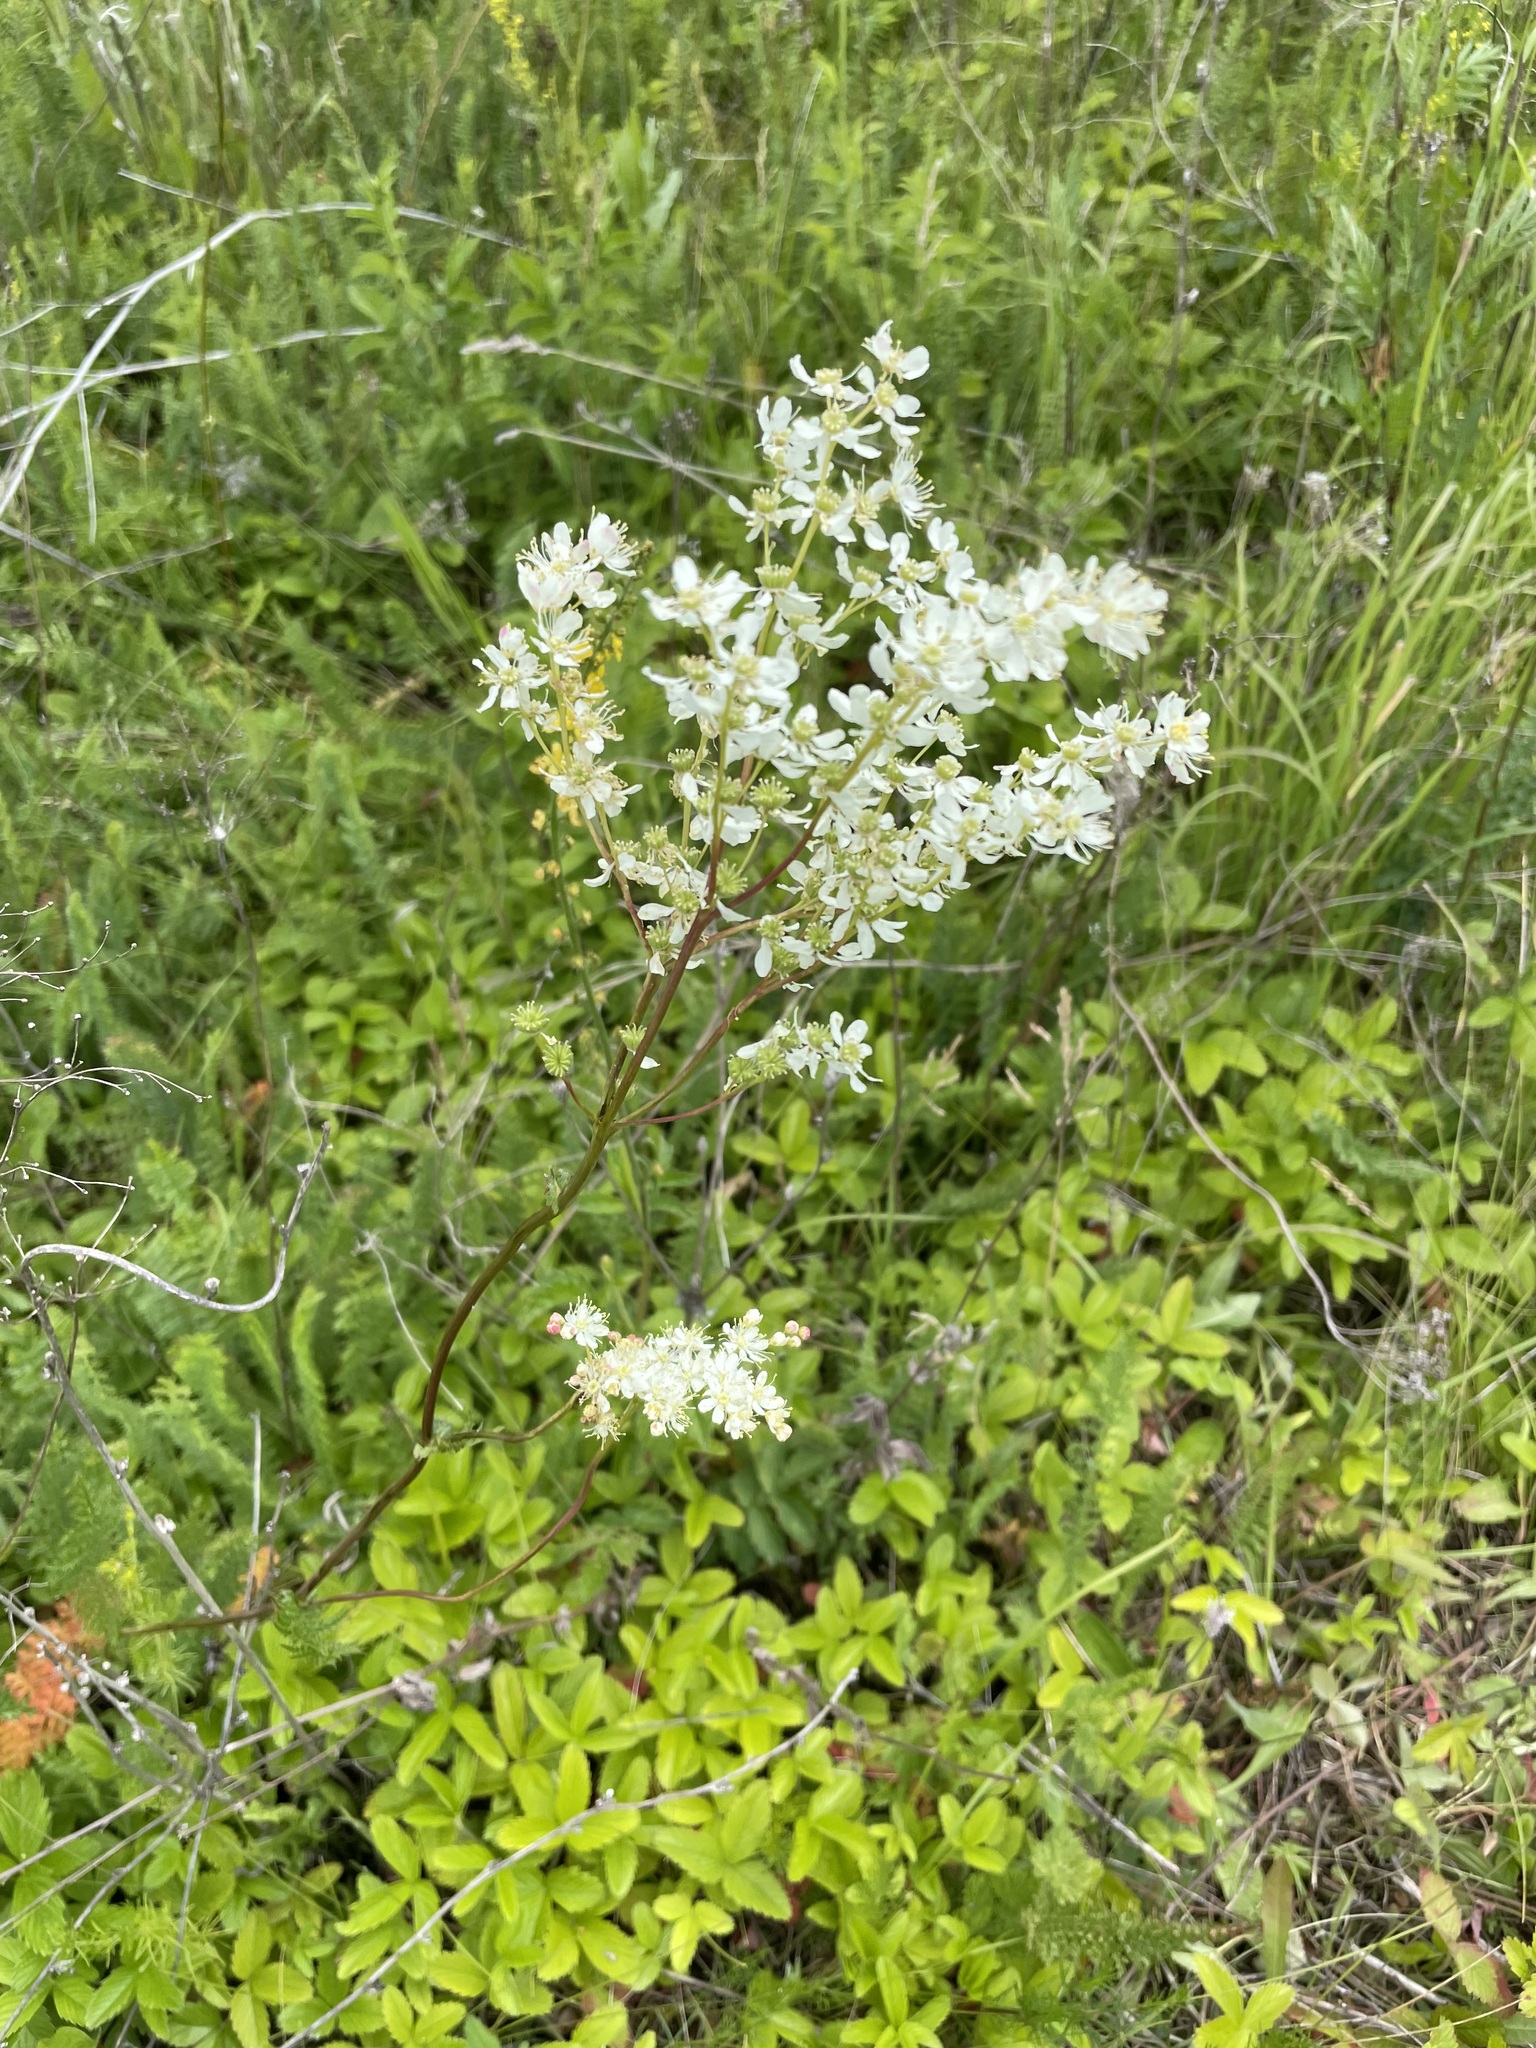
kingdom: Plantae
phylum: Tracheophyta
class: Magnoliopsida
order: Rosales
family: Rosaceae
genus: Filipendula
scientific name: Filipendula vulgaris
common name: Dropwort
